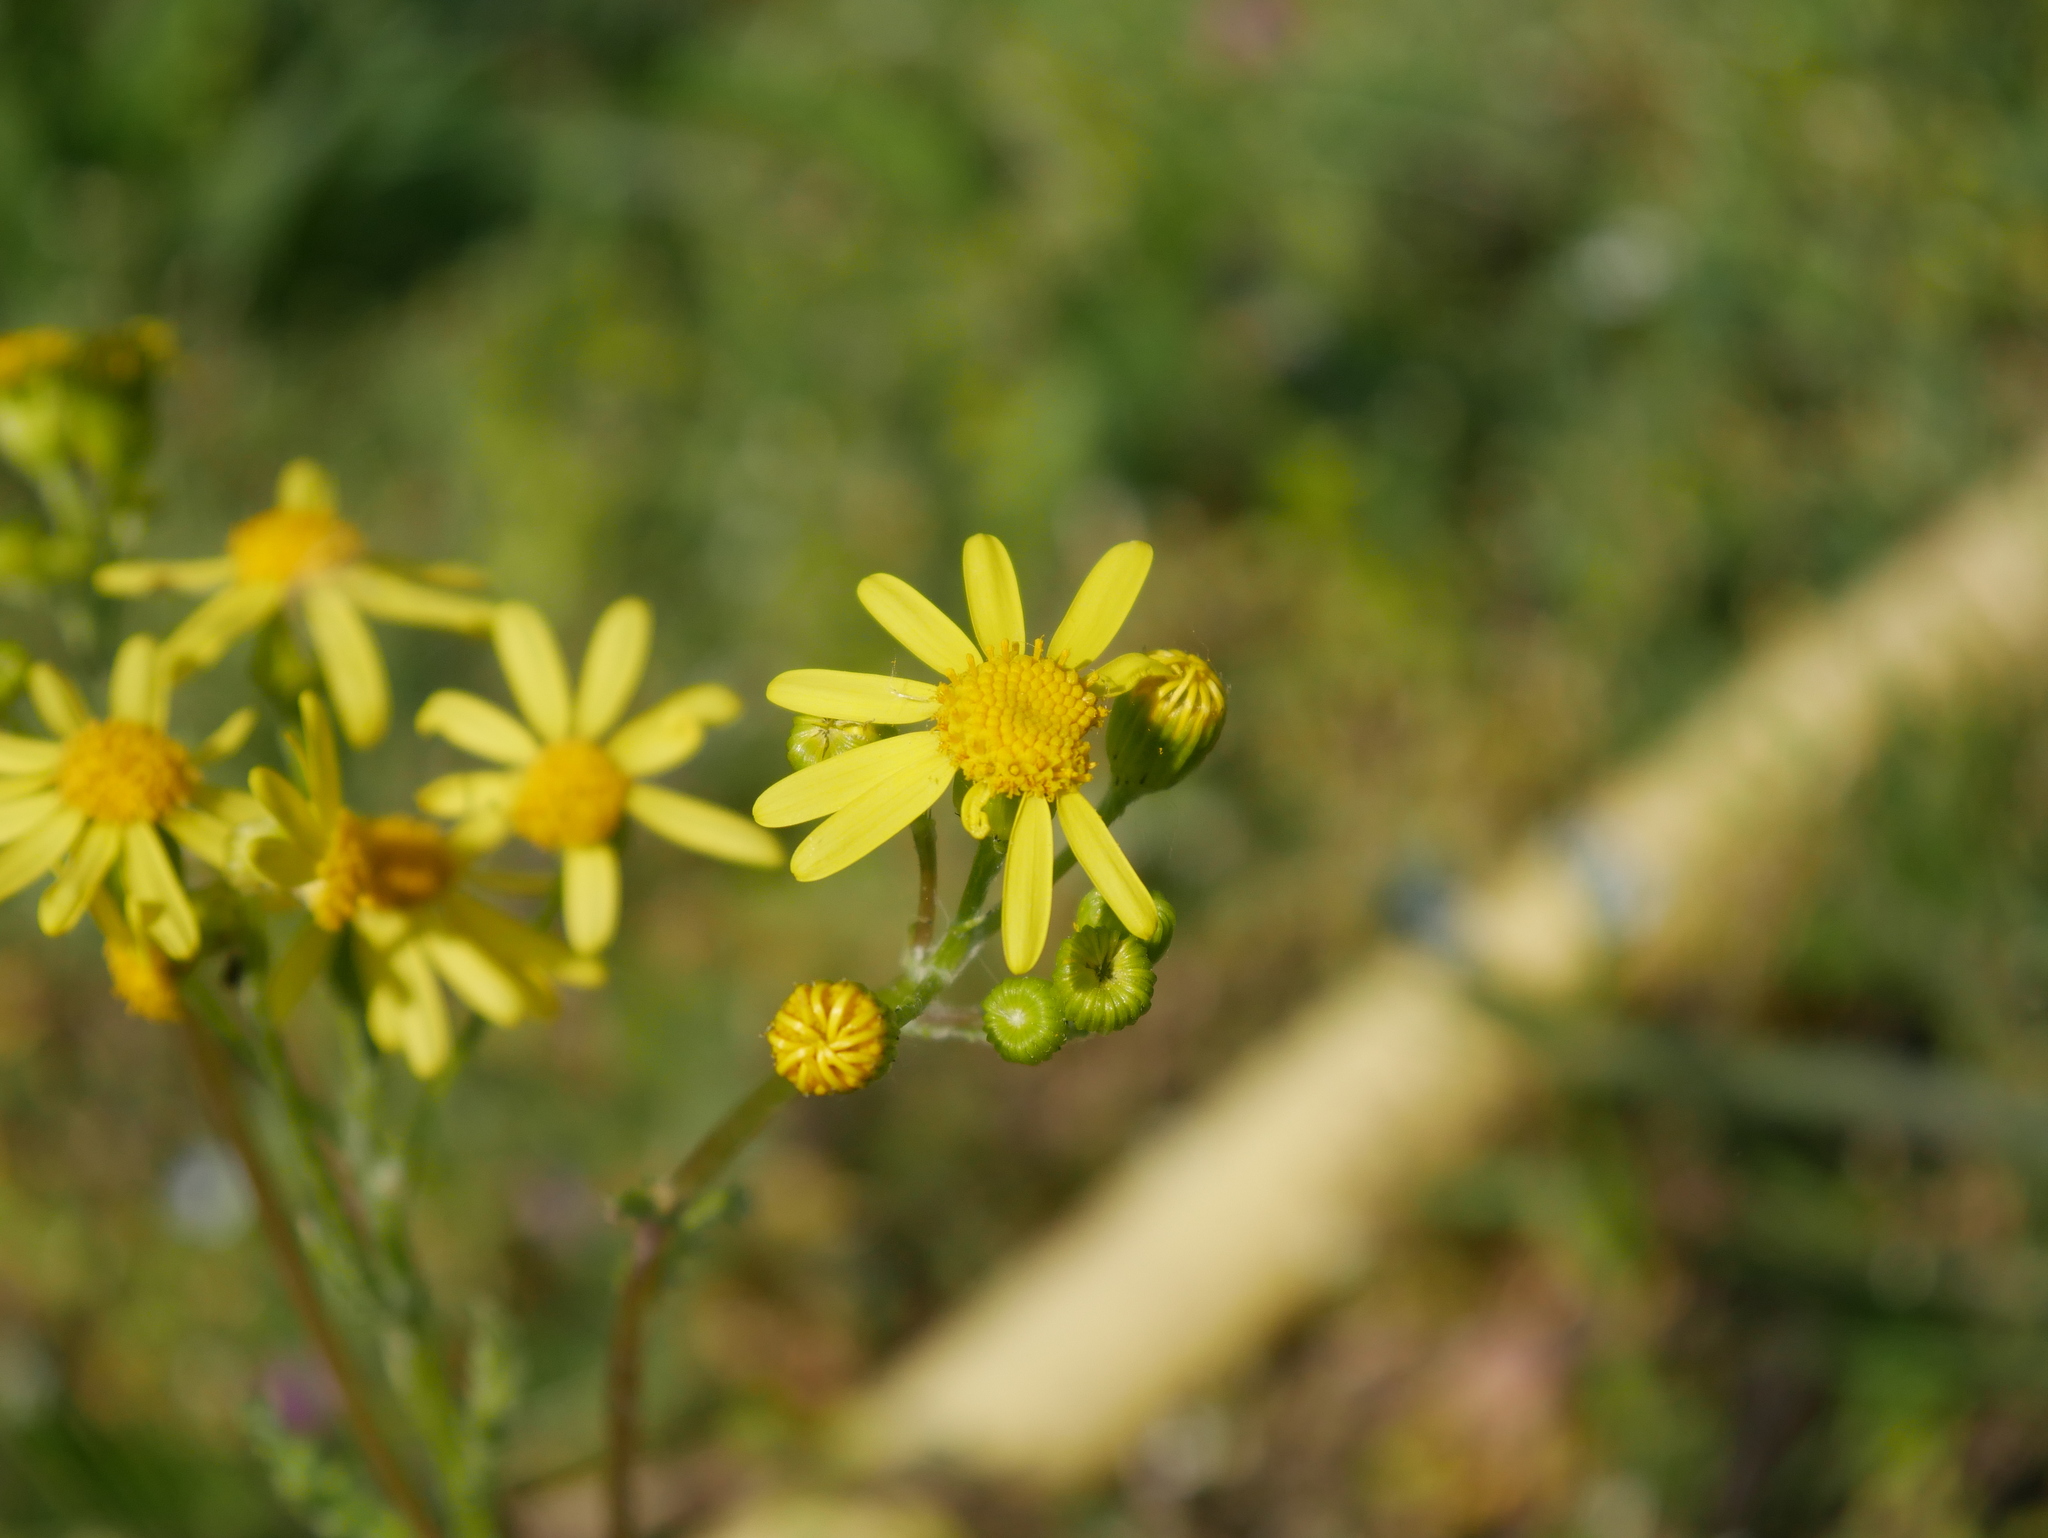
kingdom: Plantae
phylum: Tracheophyta
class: Magnoliopsida
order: Asterales
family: Asteraceae
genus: Senecio
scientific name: Senecio vernalis
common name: Eastern groundsel
